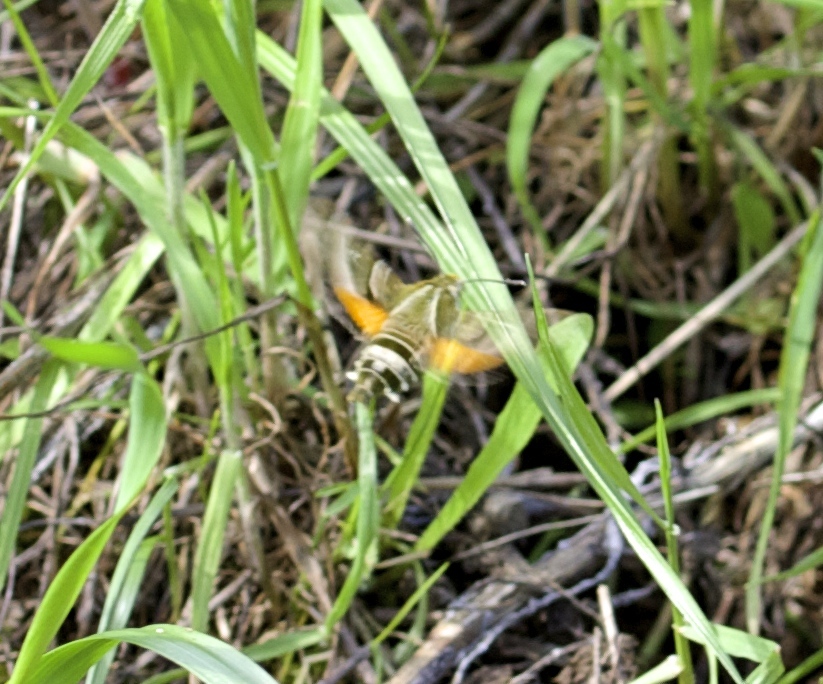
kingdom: Animalia
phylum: Arthropoda
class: Insecta
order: Lepidoptera
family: Sphingidae
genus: Proserpinus
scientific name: Proserpinus clarkiae
